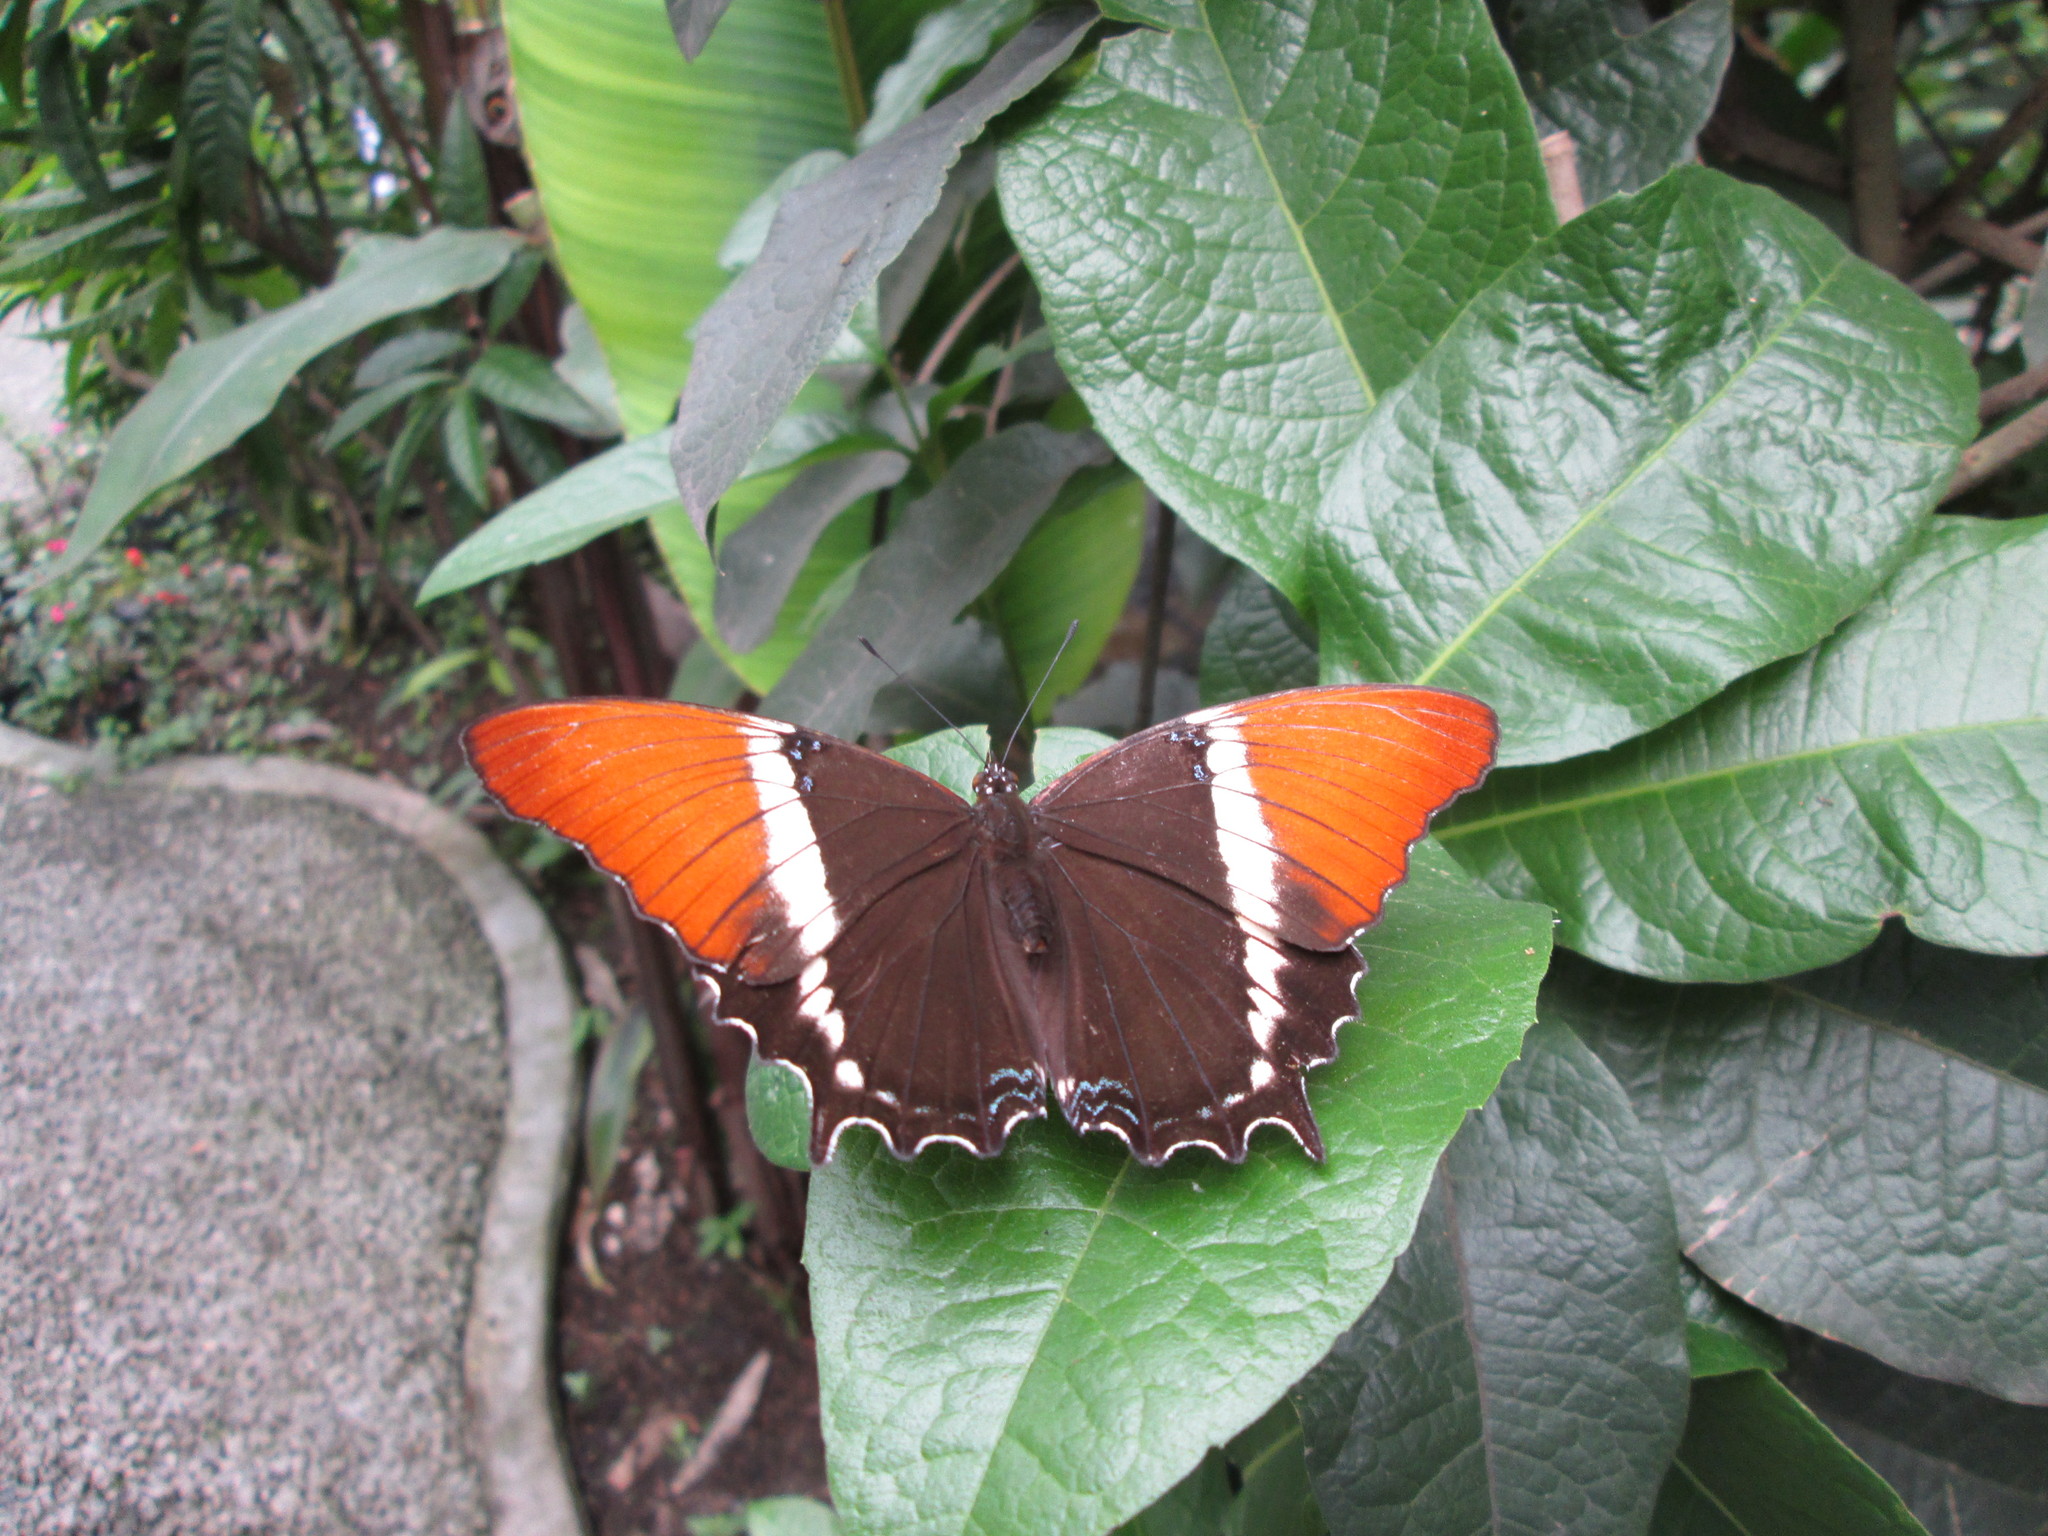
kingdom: Animalia
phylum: Arthropoda
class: Insecta
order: Lepidoptera
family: Nymphalidae
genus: Siproeta
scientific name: Siproeta epaphus
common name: Rusty-tipped page
